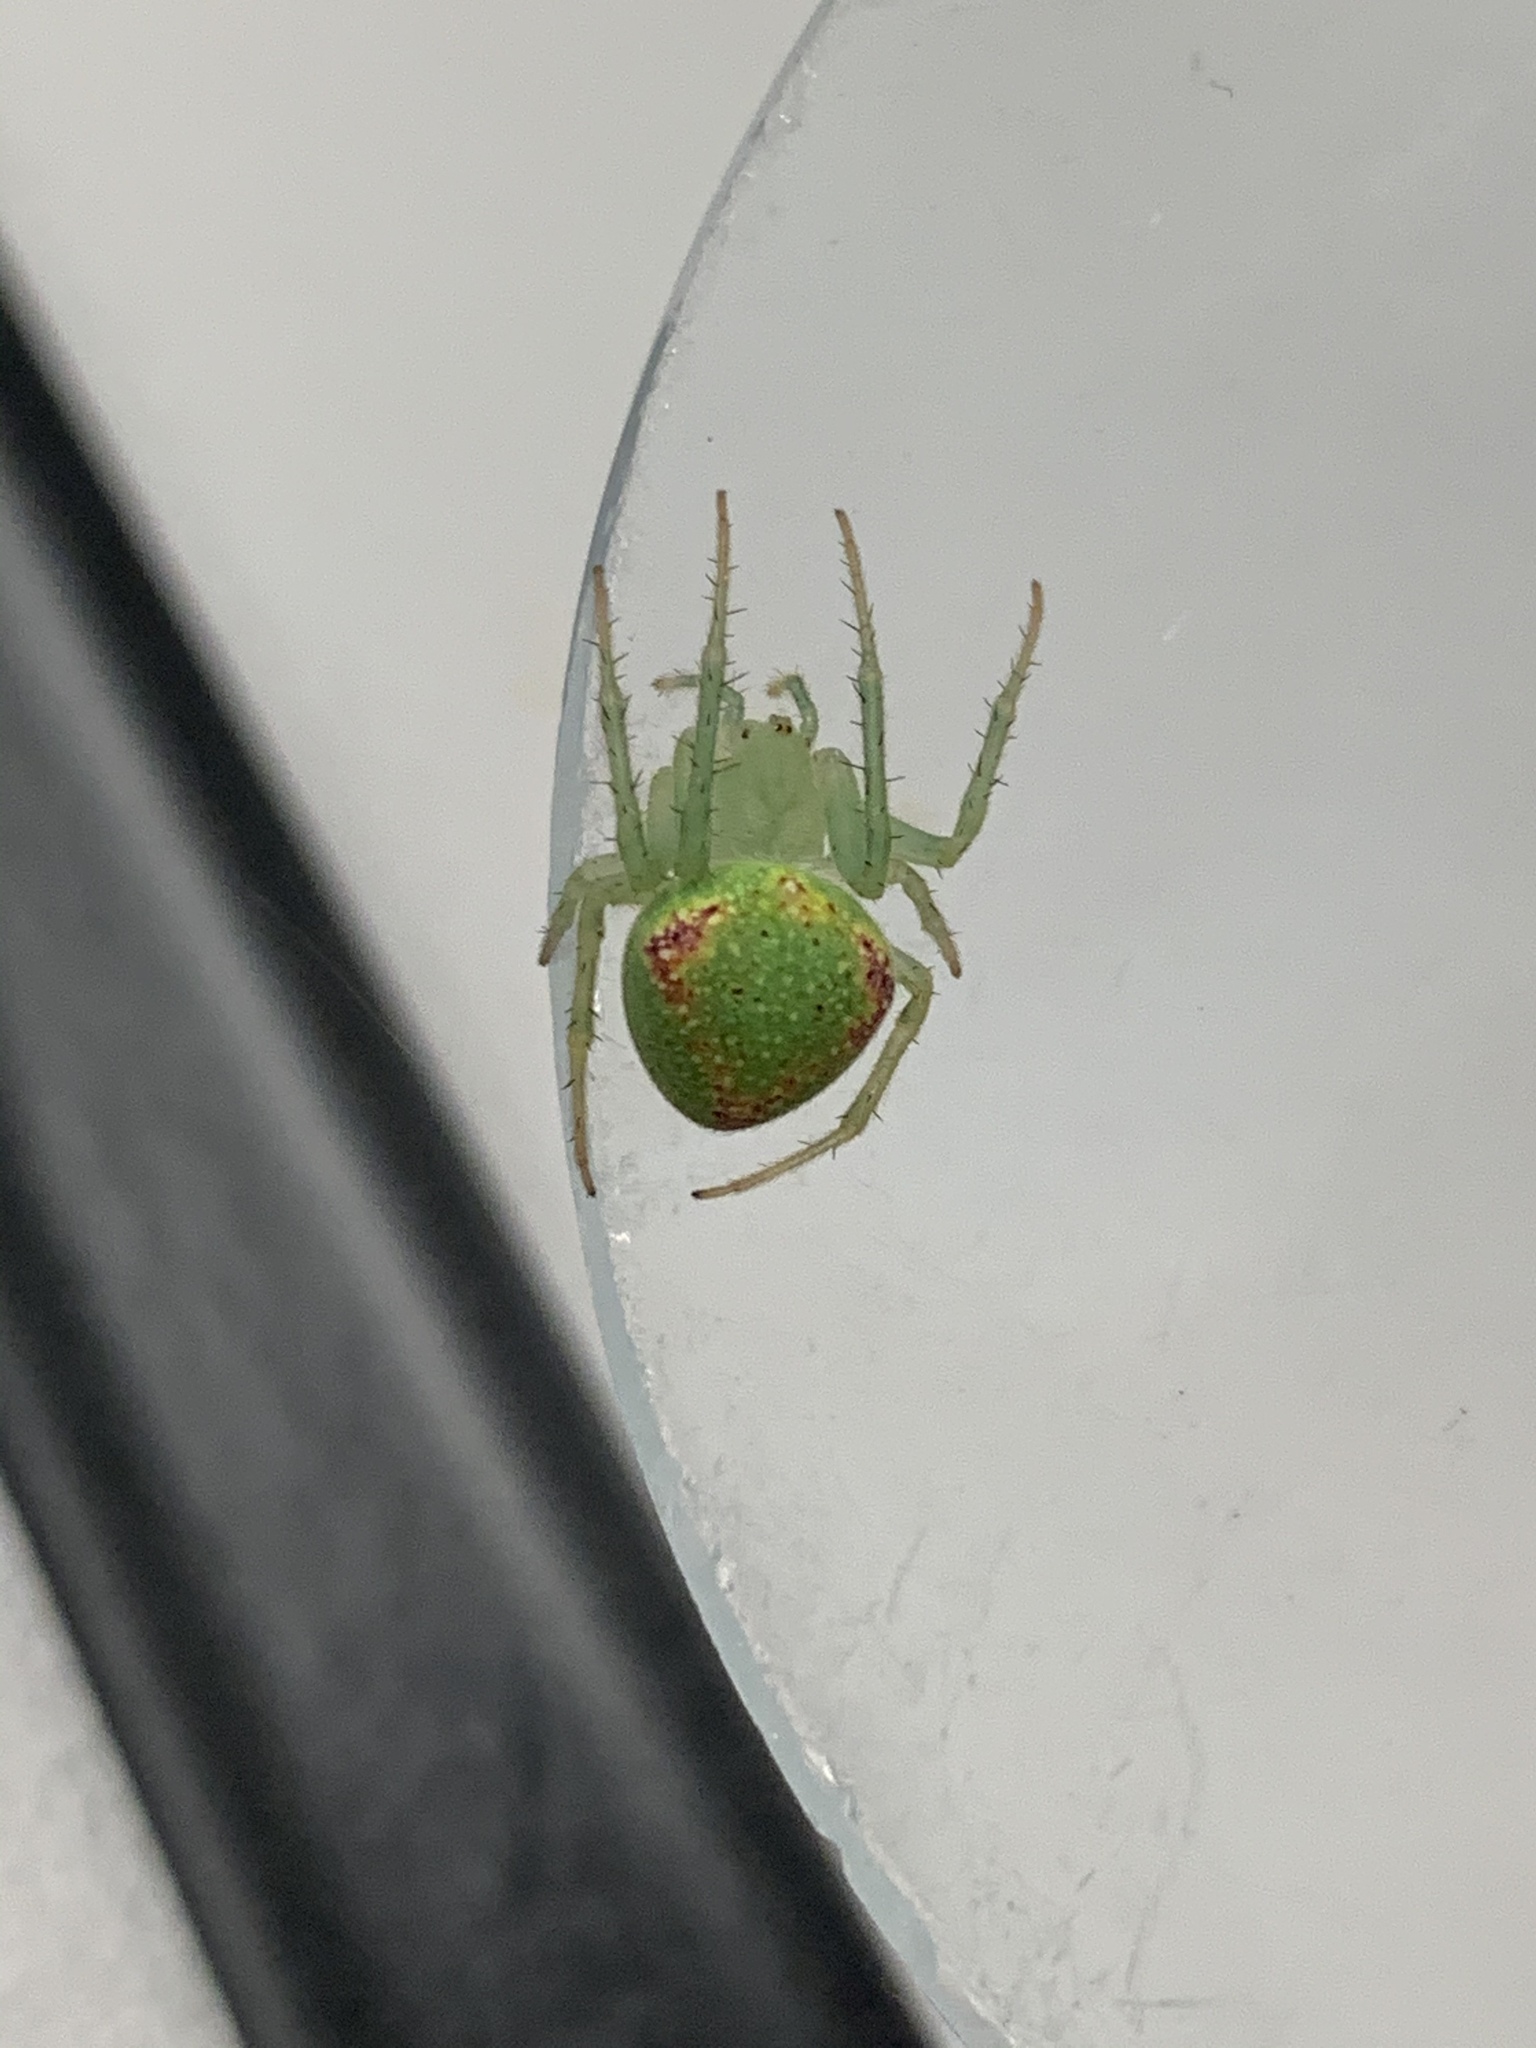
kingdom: Animalia
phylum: Arthropoda
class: Arachnida
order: Araneae
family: Araneidae
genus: Araneus
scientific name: Araneus circulissparsus
